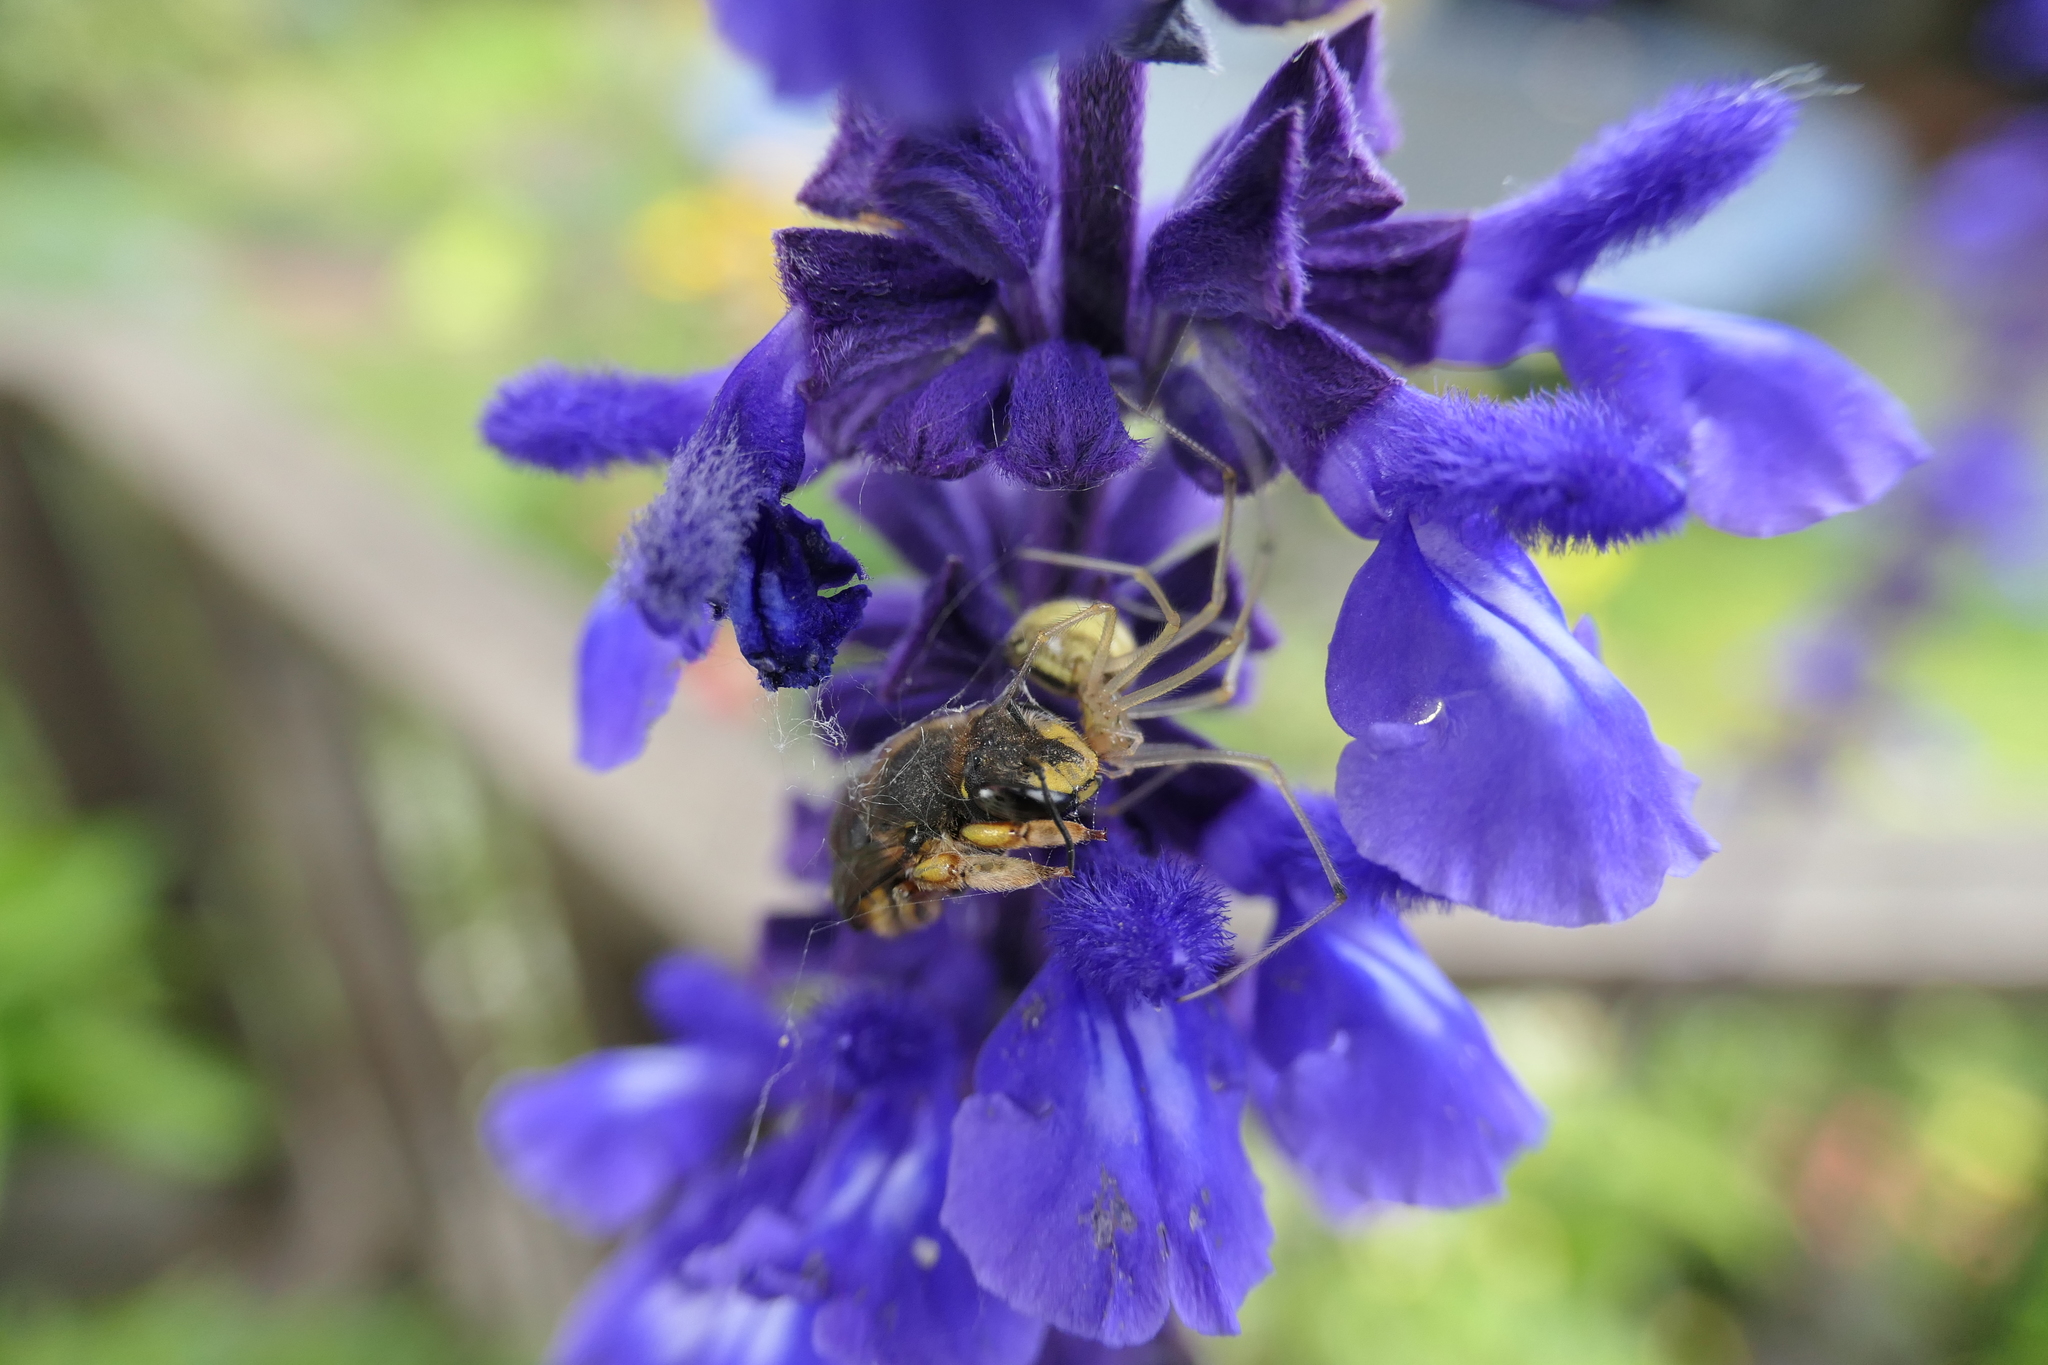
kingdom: Animalia
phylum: Arthropoda
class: Arachnida
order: Araneae
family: Theridiidae
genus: Enoplognatha
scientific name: Enoplognatha ovata
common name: Common candy-striped spider
